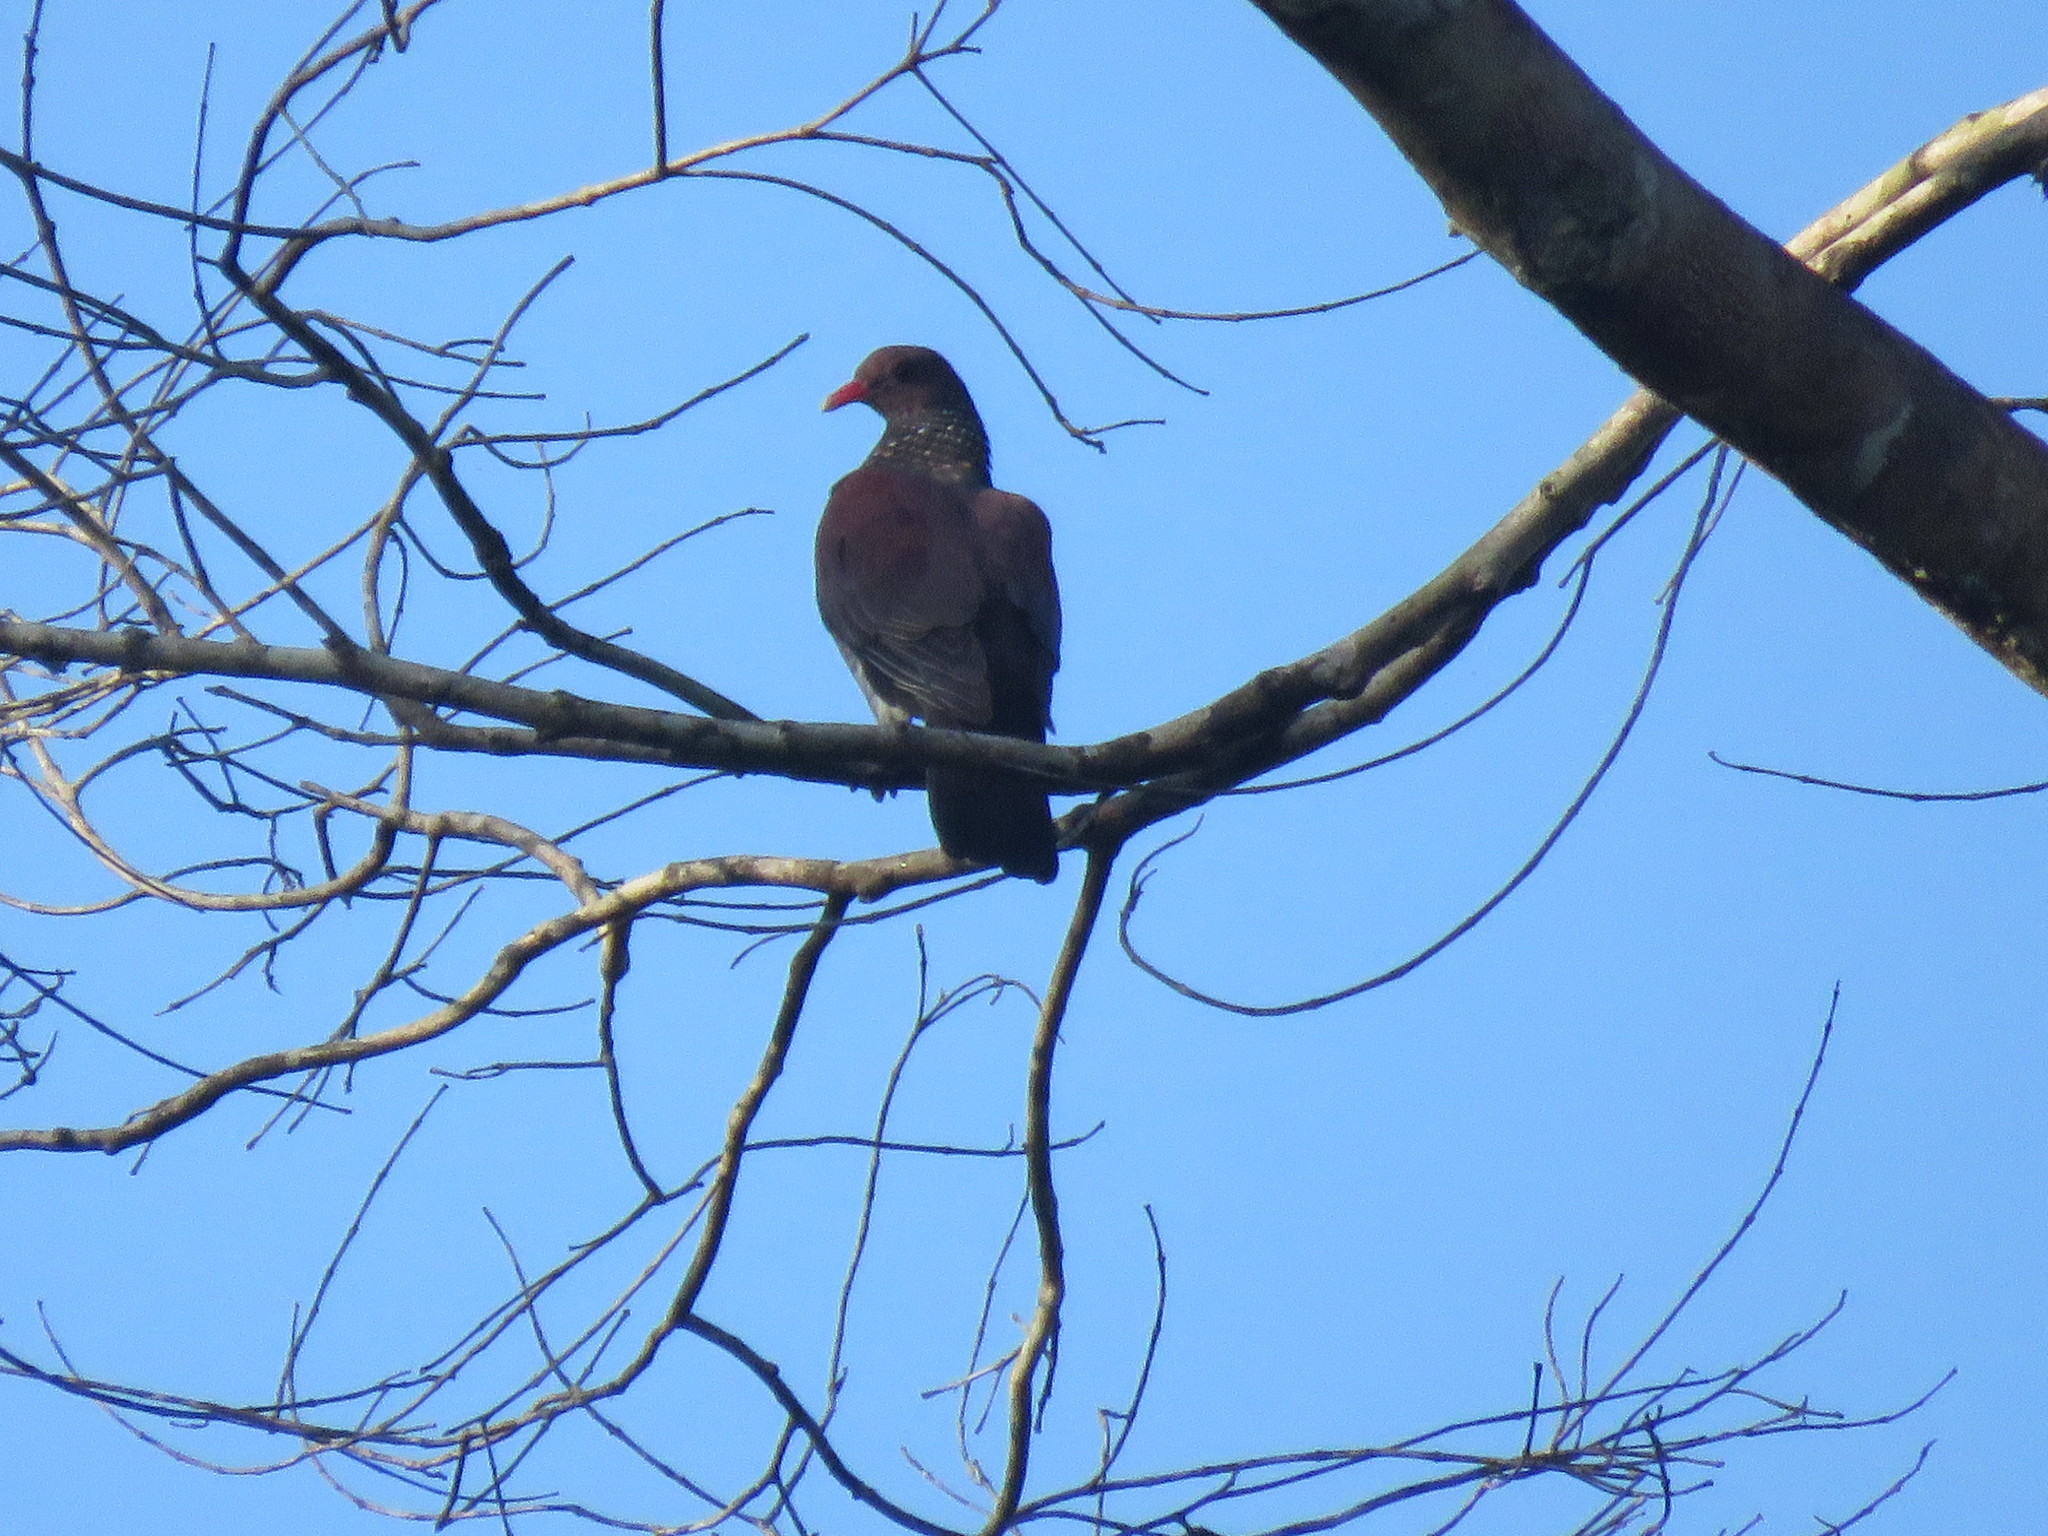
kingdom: Animalia
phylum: Chordata
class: Aves
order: Columbiformes
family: Columbidae
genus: Patagioenas
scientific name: Patagioenas speciosa
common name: Scaled pigeon
